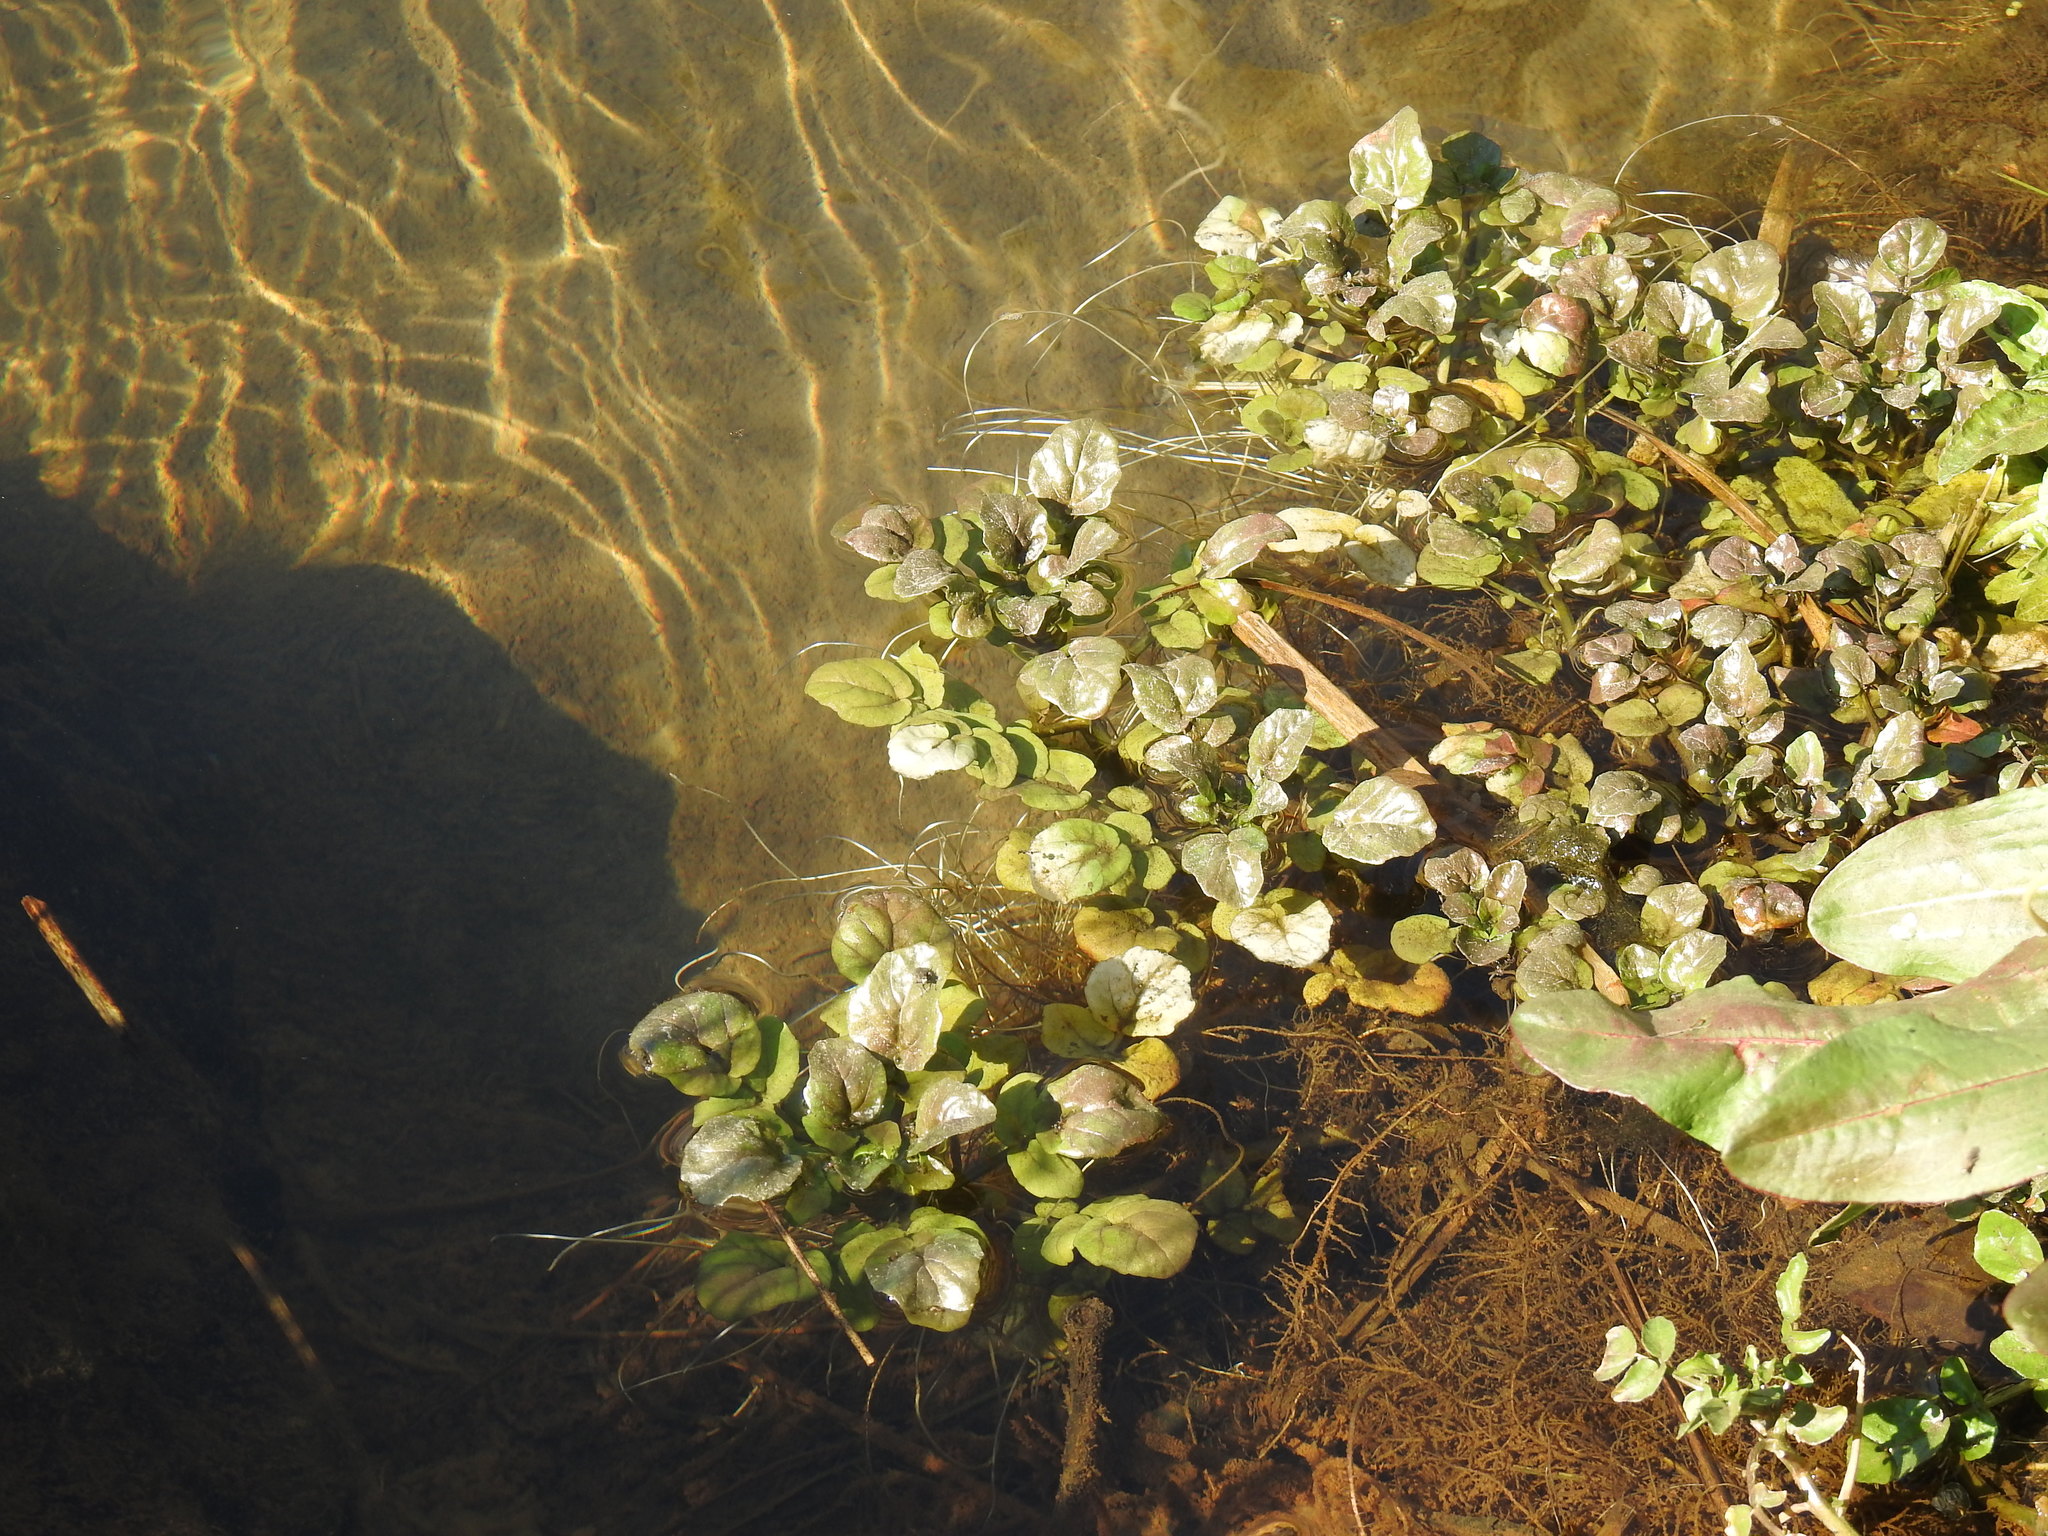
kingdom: Plantae
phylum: Tracheophyta
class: Magnoliopsida
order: Brassicales
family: Brassicaceae
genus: Nasturtium
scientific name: Nasturtium officinale
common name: Watercress
